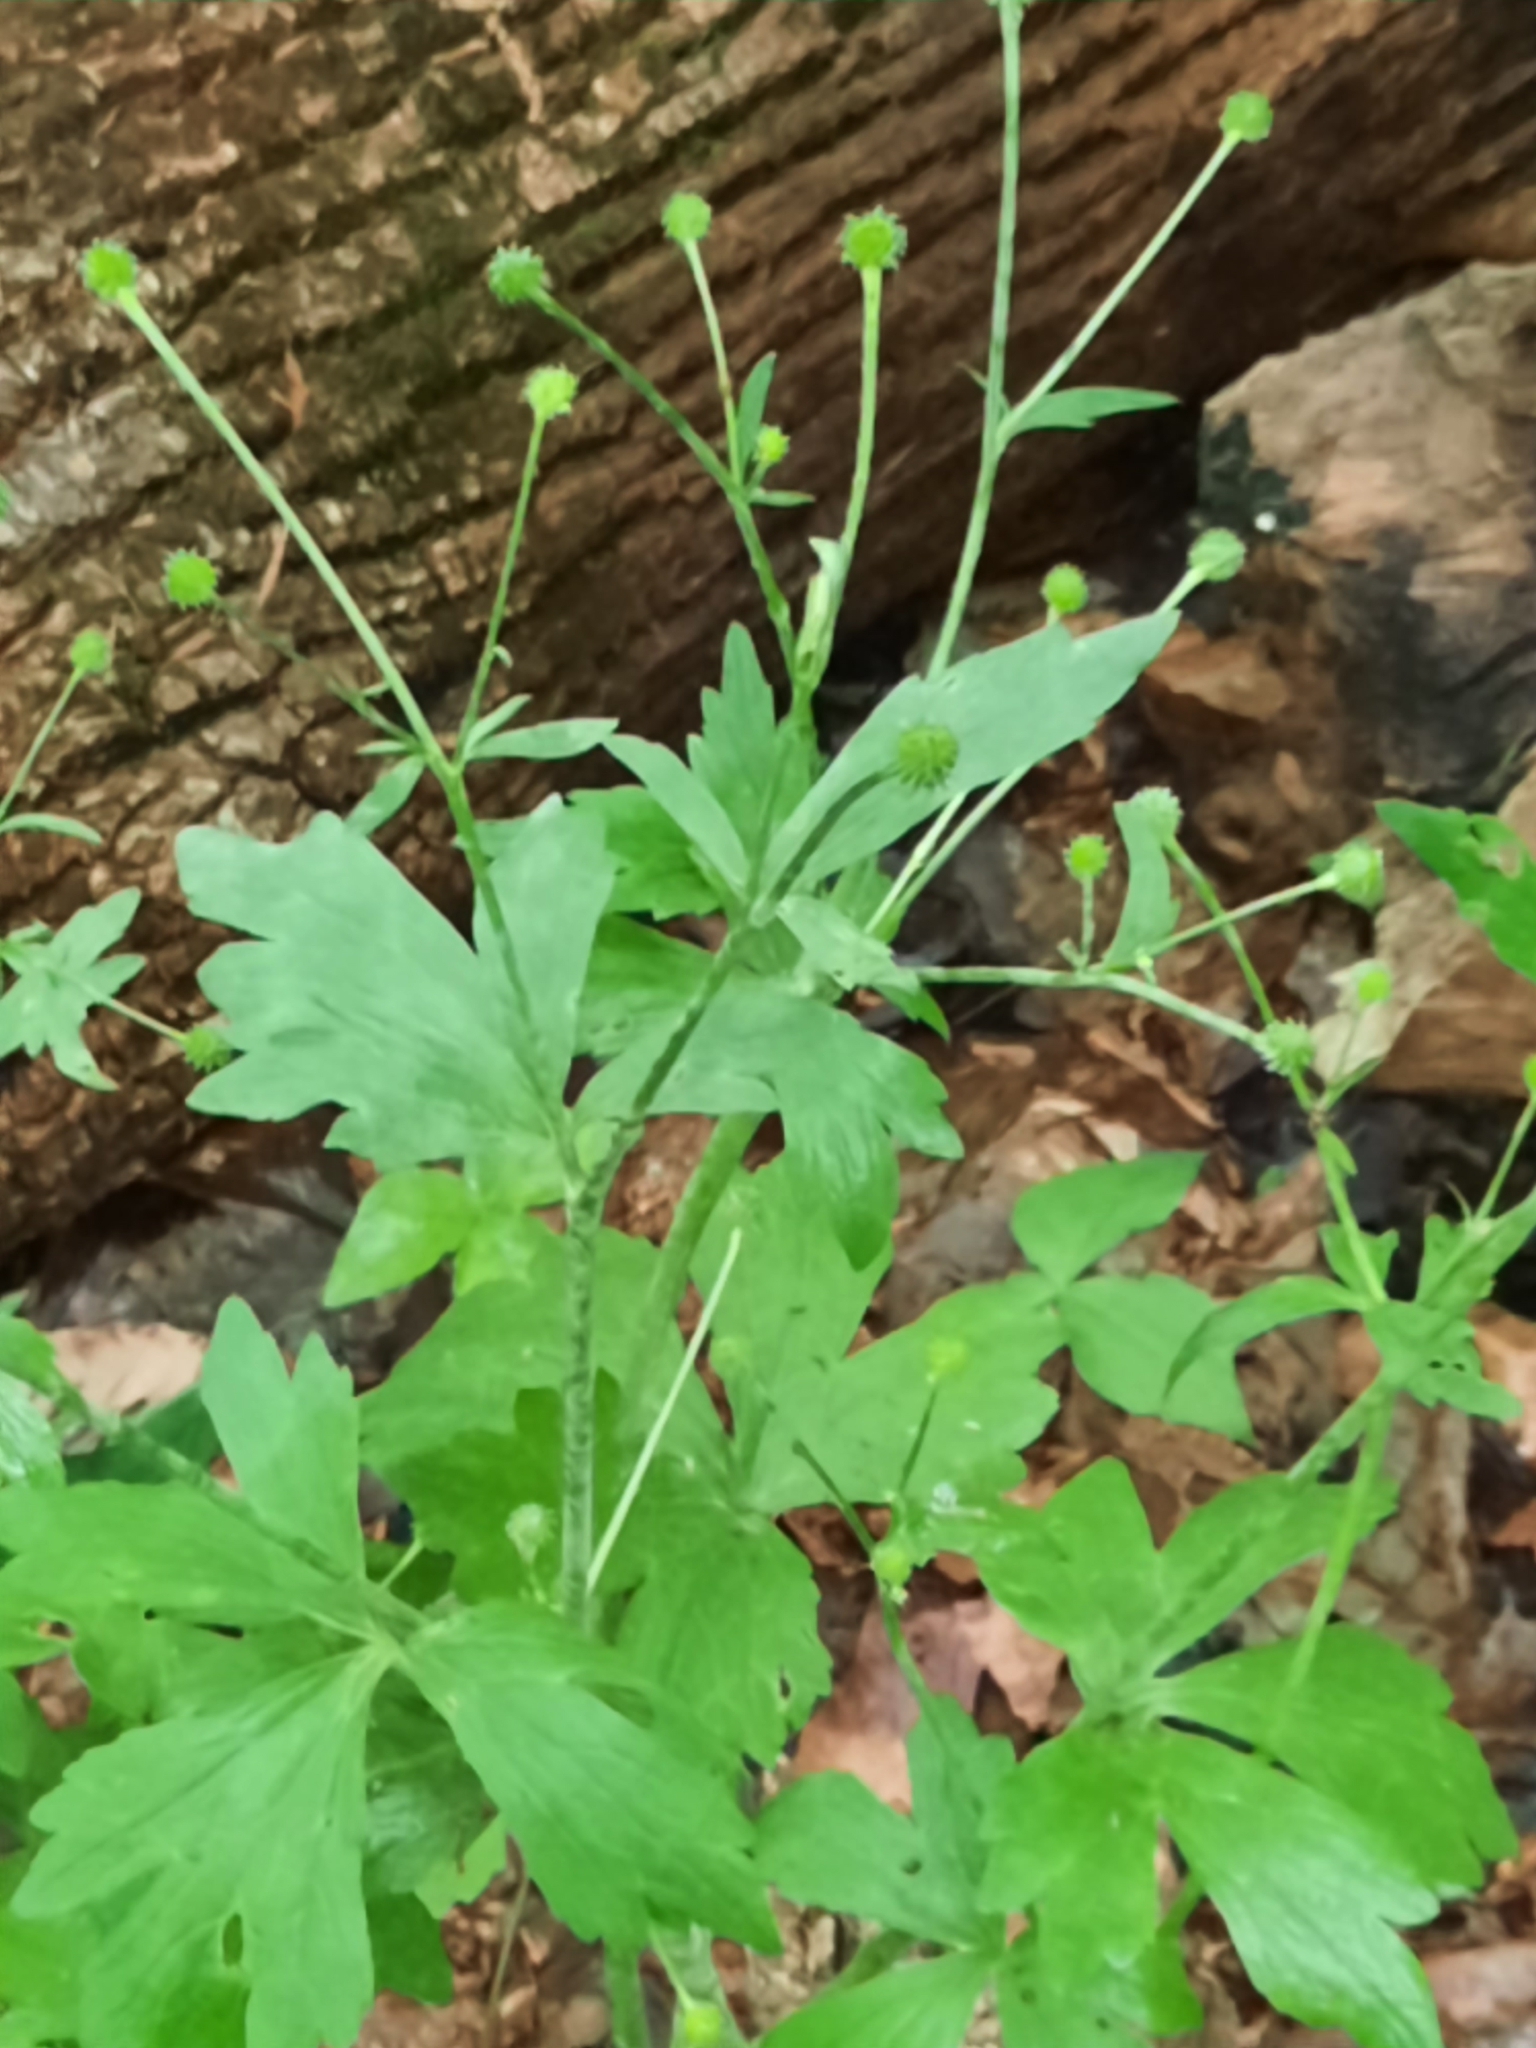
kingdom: Plantae
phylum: Tracheophyta
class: Magnoliopsida
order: Ranunculales
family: Ranunculaceae
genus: Ranunculus
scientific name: Ranunculus recurvatus
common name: Blisterwort
